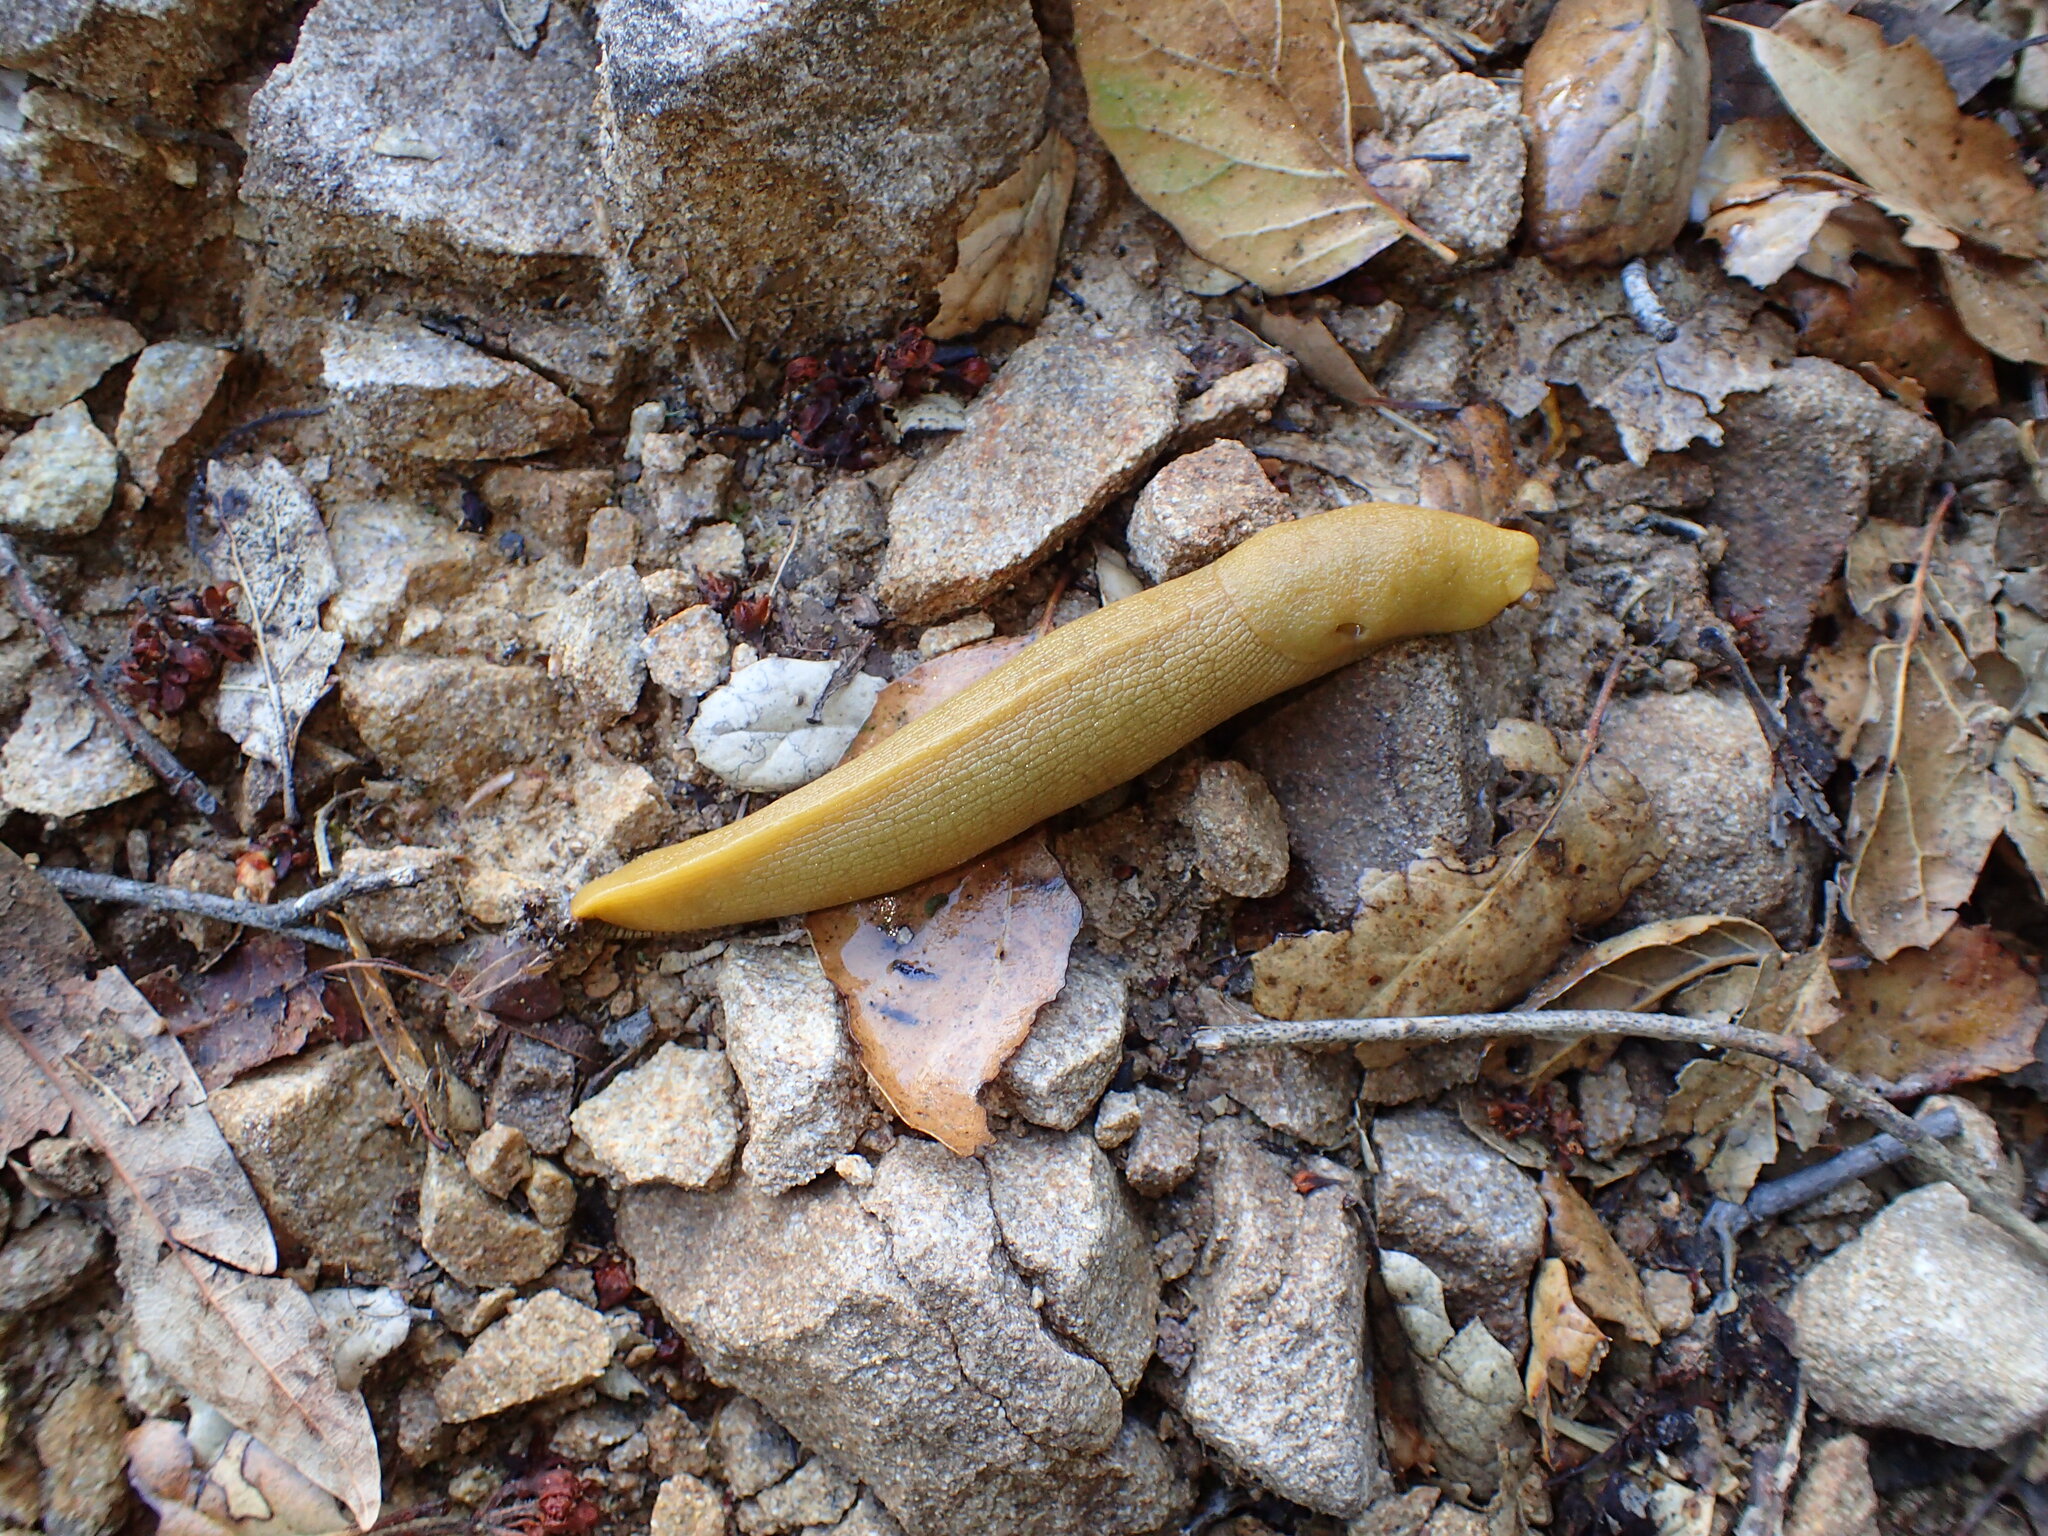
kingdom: Animalia
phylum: Mollusca
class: Gastropoda
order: Stylommatophora
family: Ariolimacidae
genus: Ariolimax
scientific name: Ariolimax stramineus
